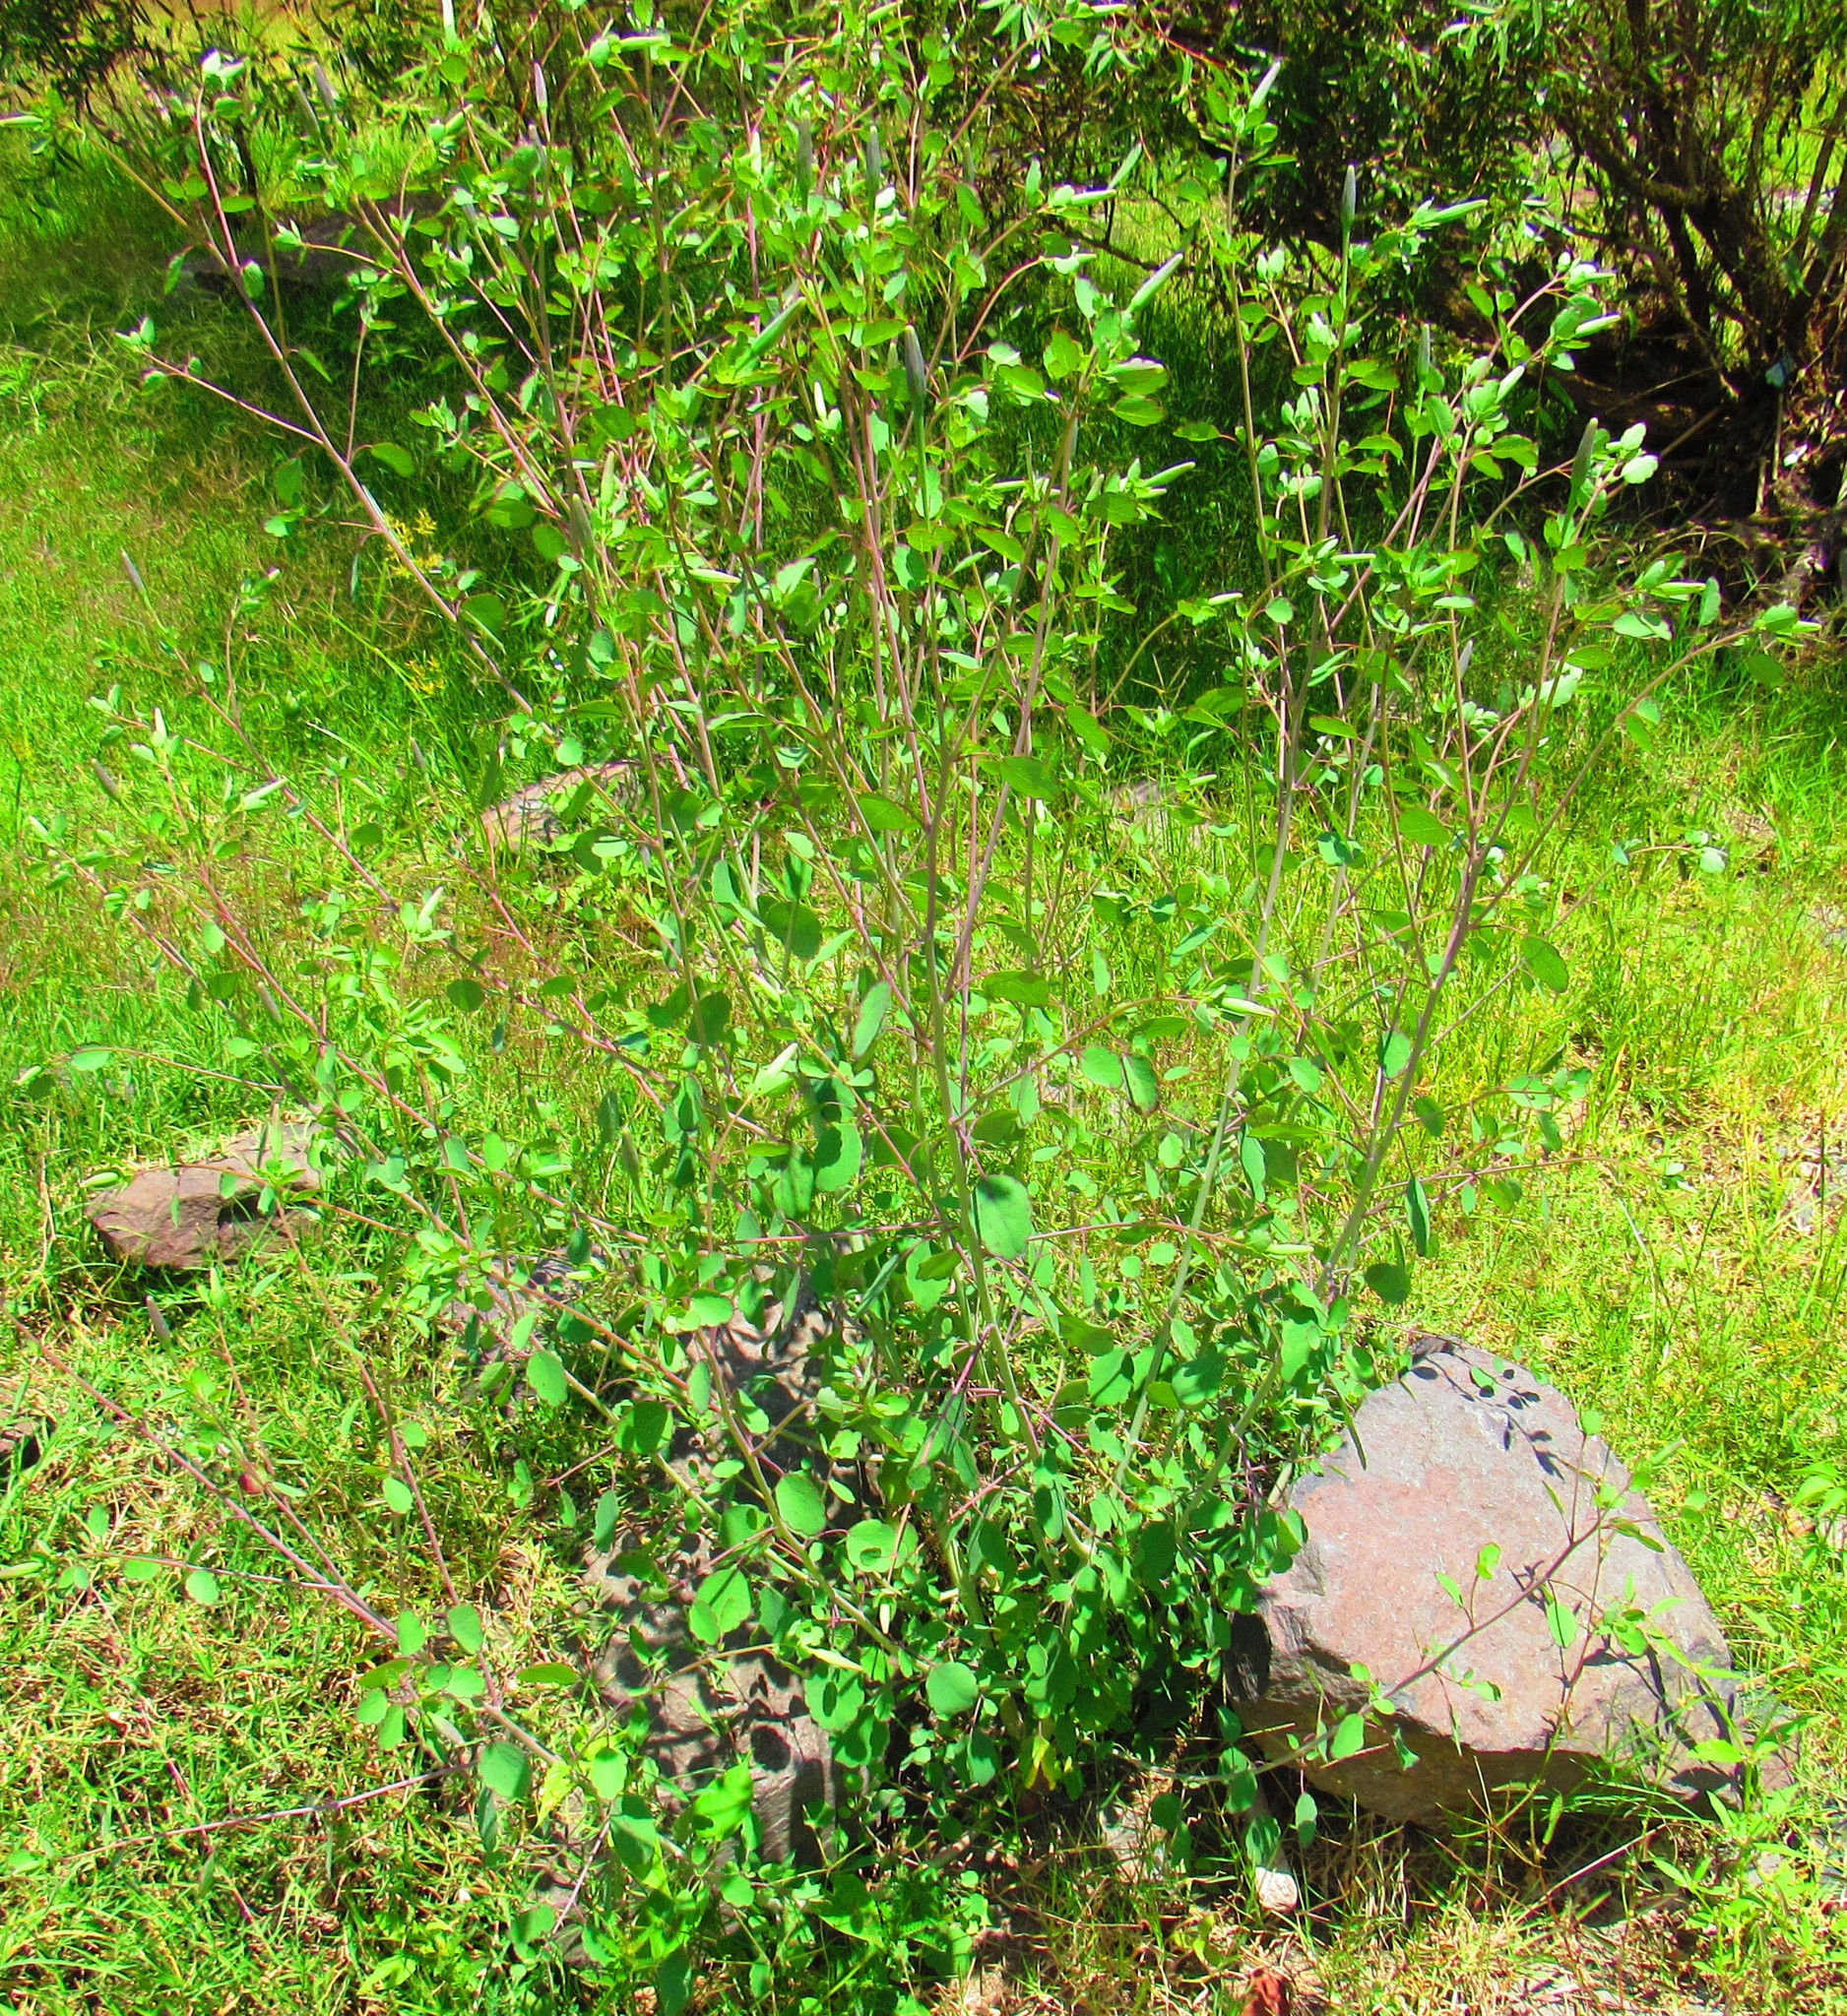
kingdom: Plantae
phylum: Tracheophyta
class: Magnoliopsida
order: Asterales
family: Asteraceae
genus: Porophyllum
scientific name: Porophyllum ruderale
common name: Yerba porosa
